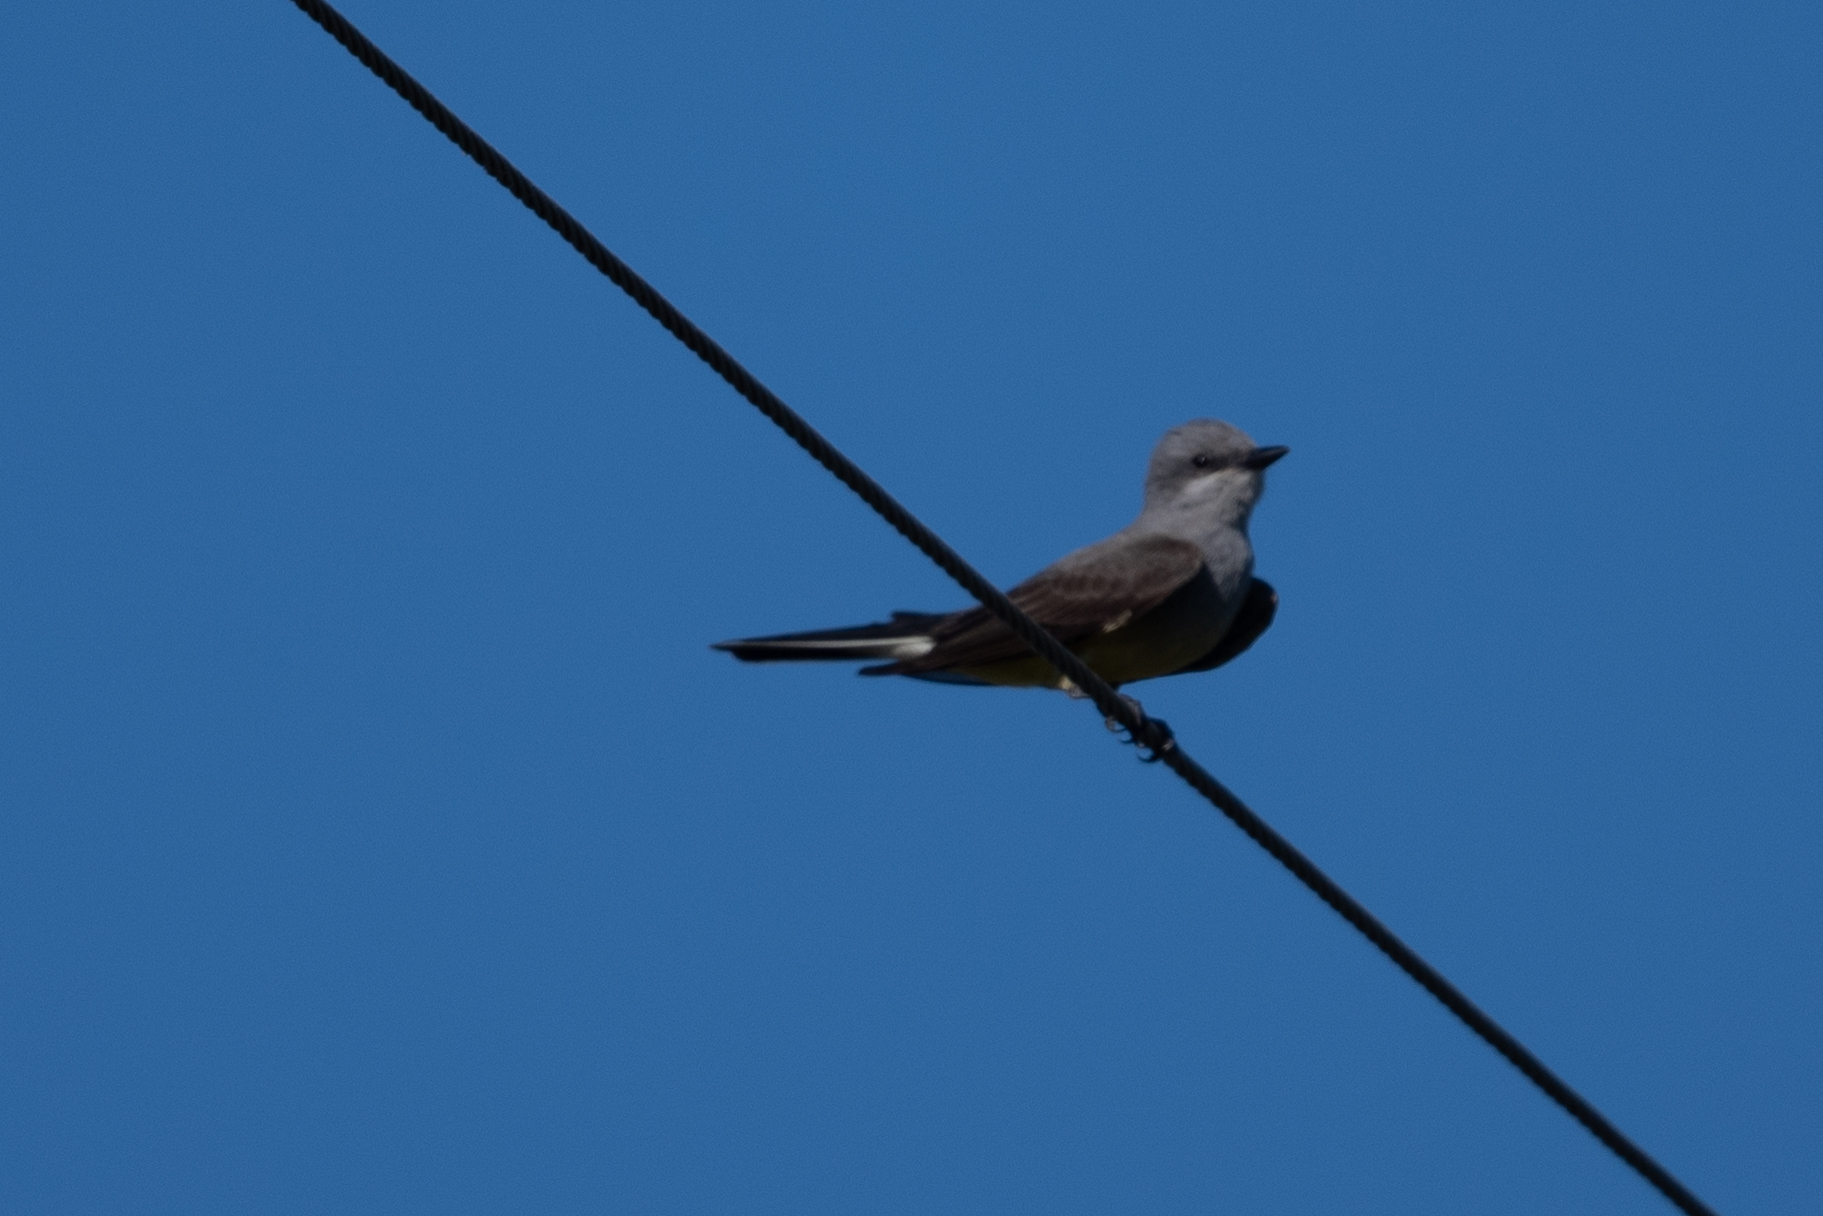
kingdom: Animalia
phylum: Chordata
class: Aves
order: Passeriformes
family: Tyrannidae
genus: Tyrannus
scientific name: Tyrannus verticalis
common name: Western kingbird
